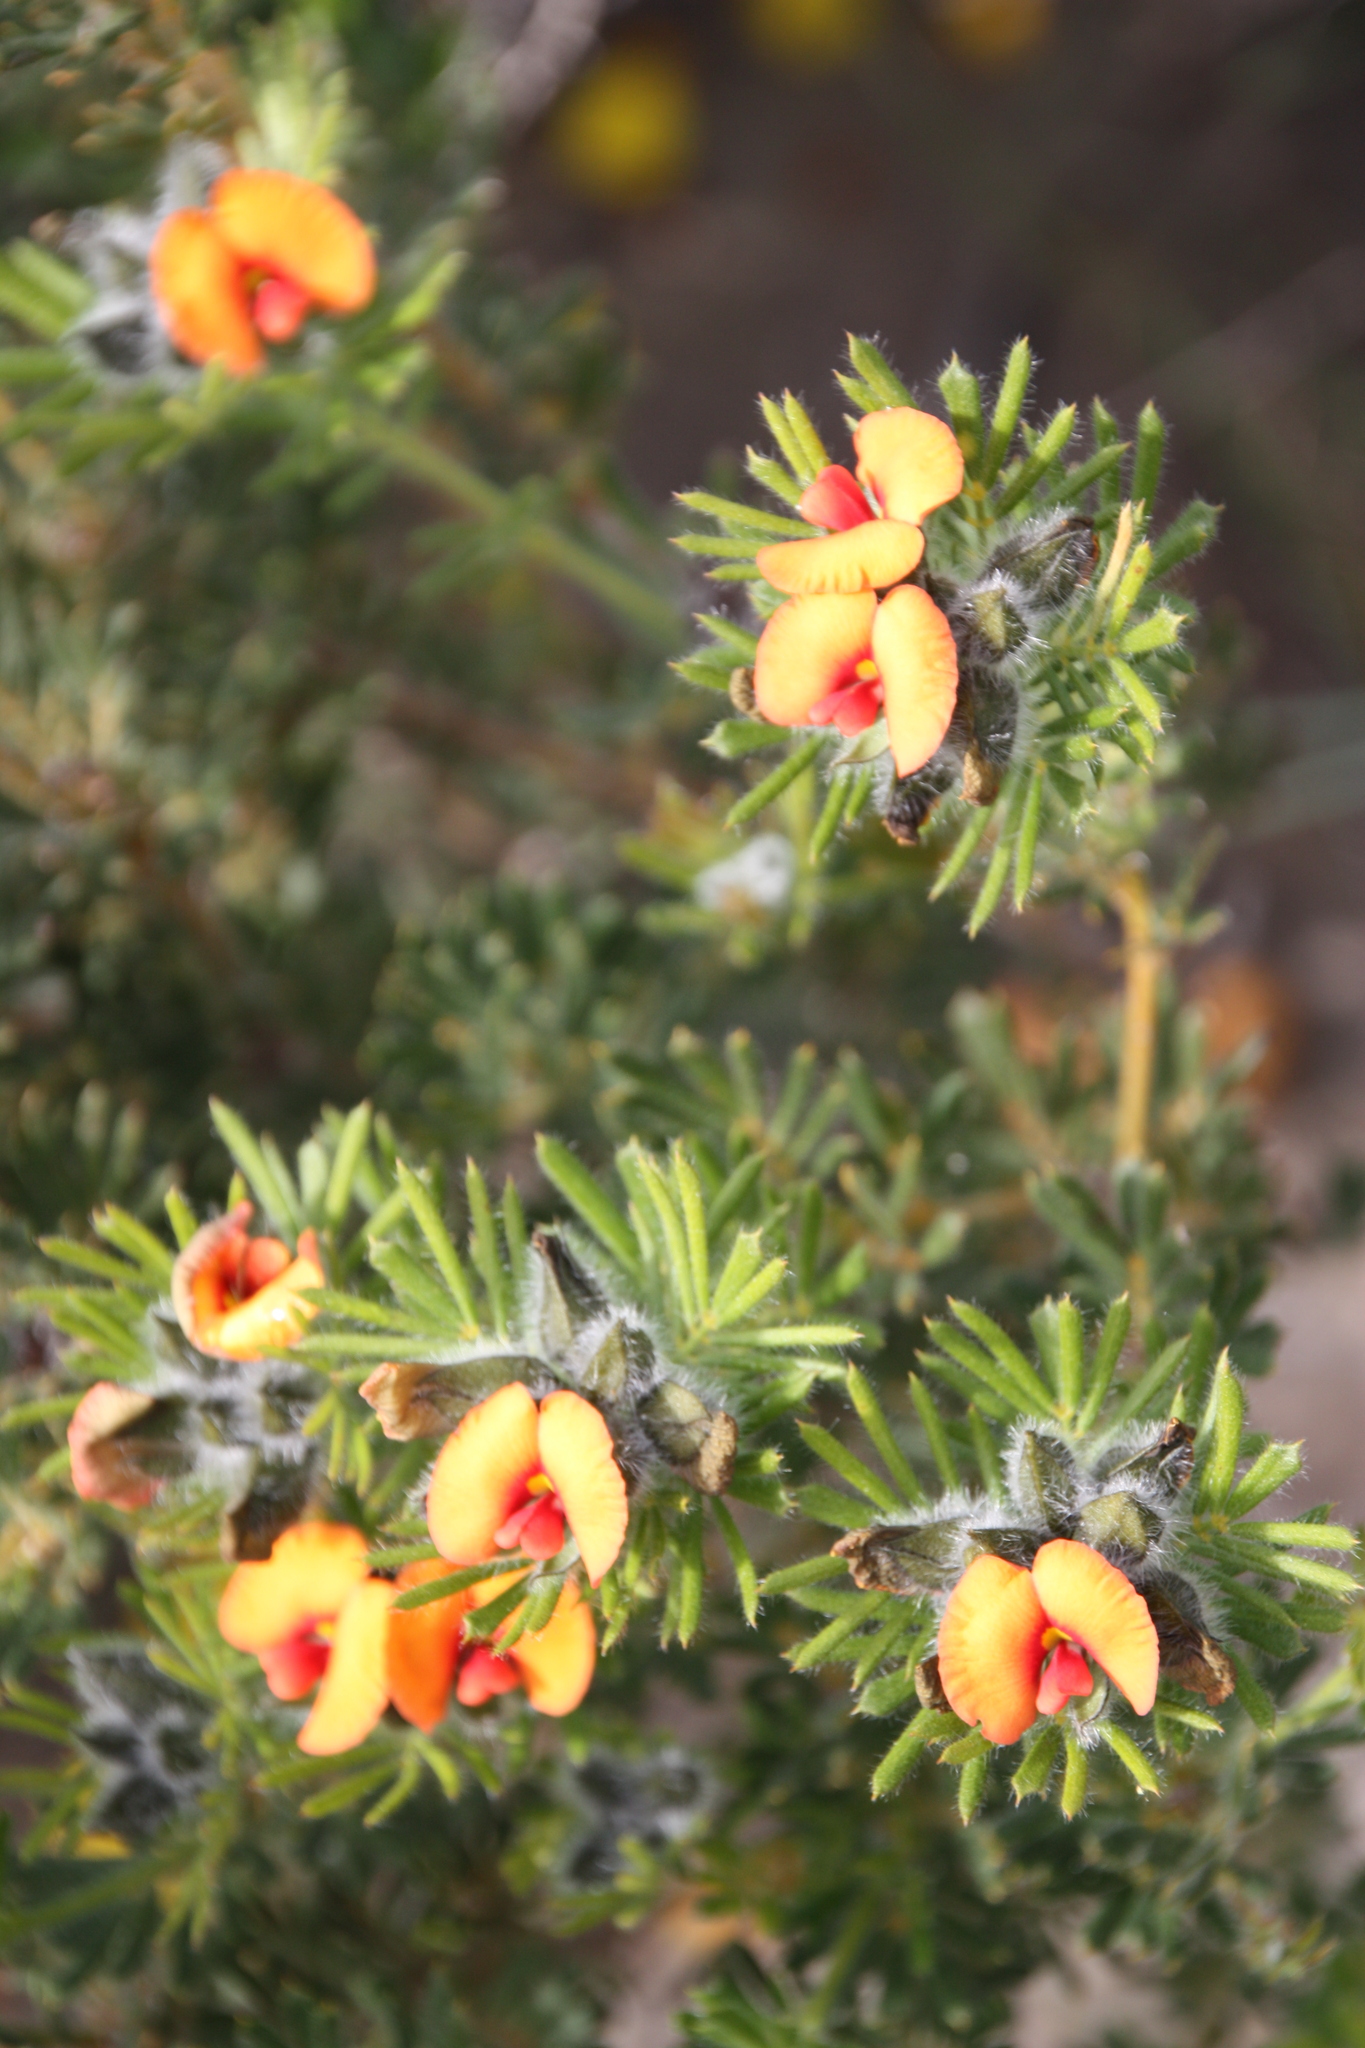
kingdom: Plantae
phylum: Tracheophyta
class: Magnoliopsida
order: Fabales
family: Fabaceae
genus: Gompholobium
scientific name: Gompholobium preissii
